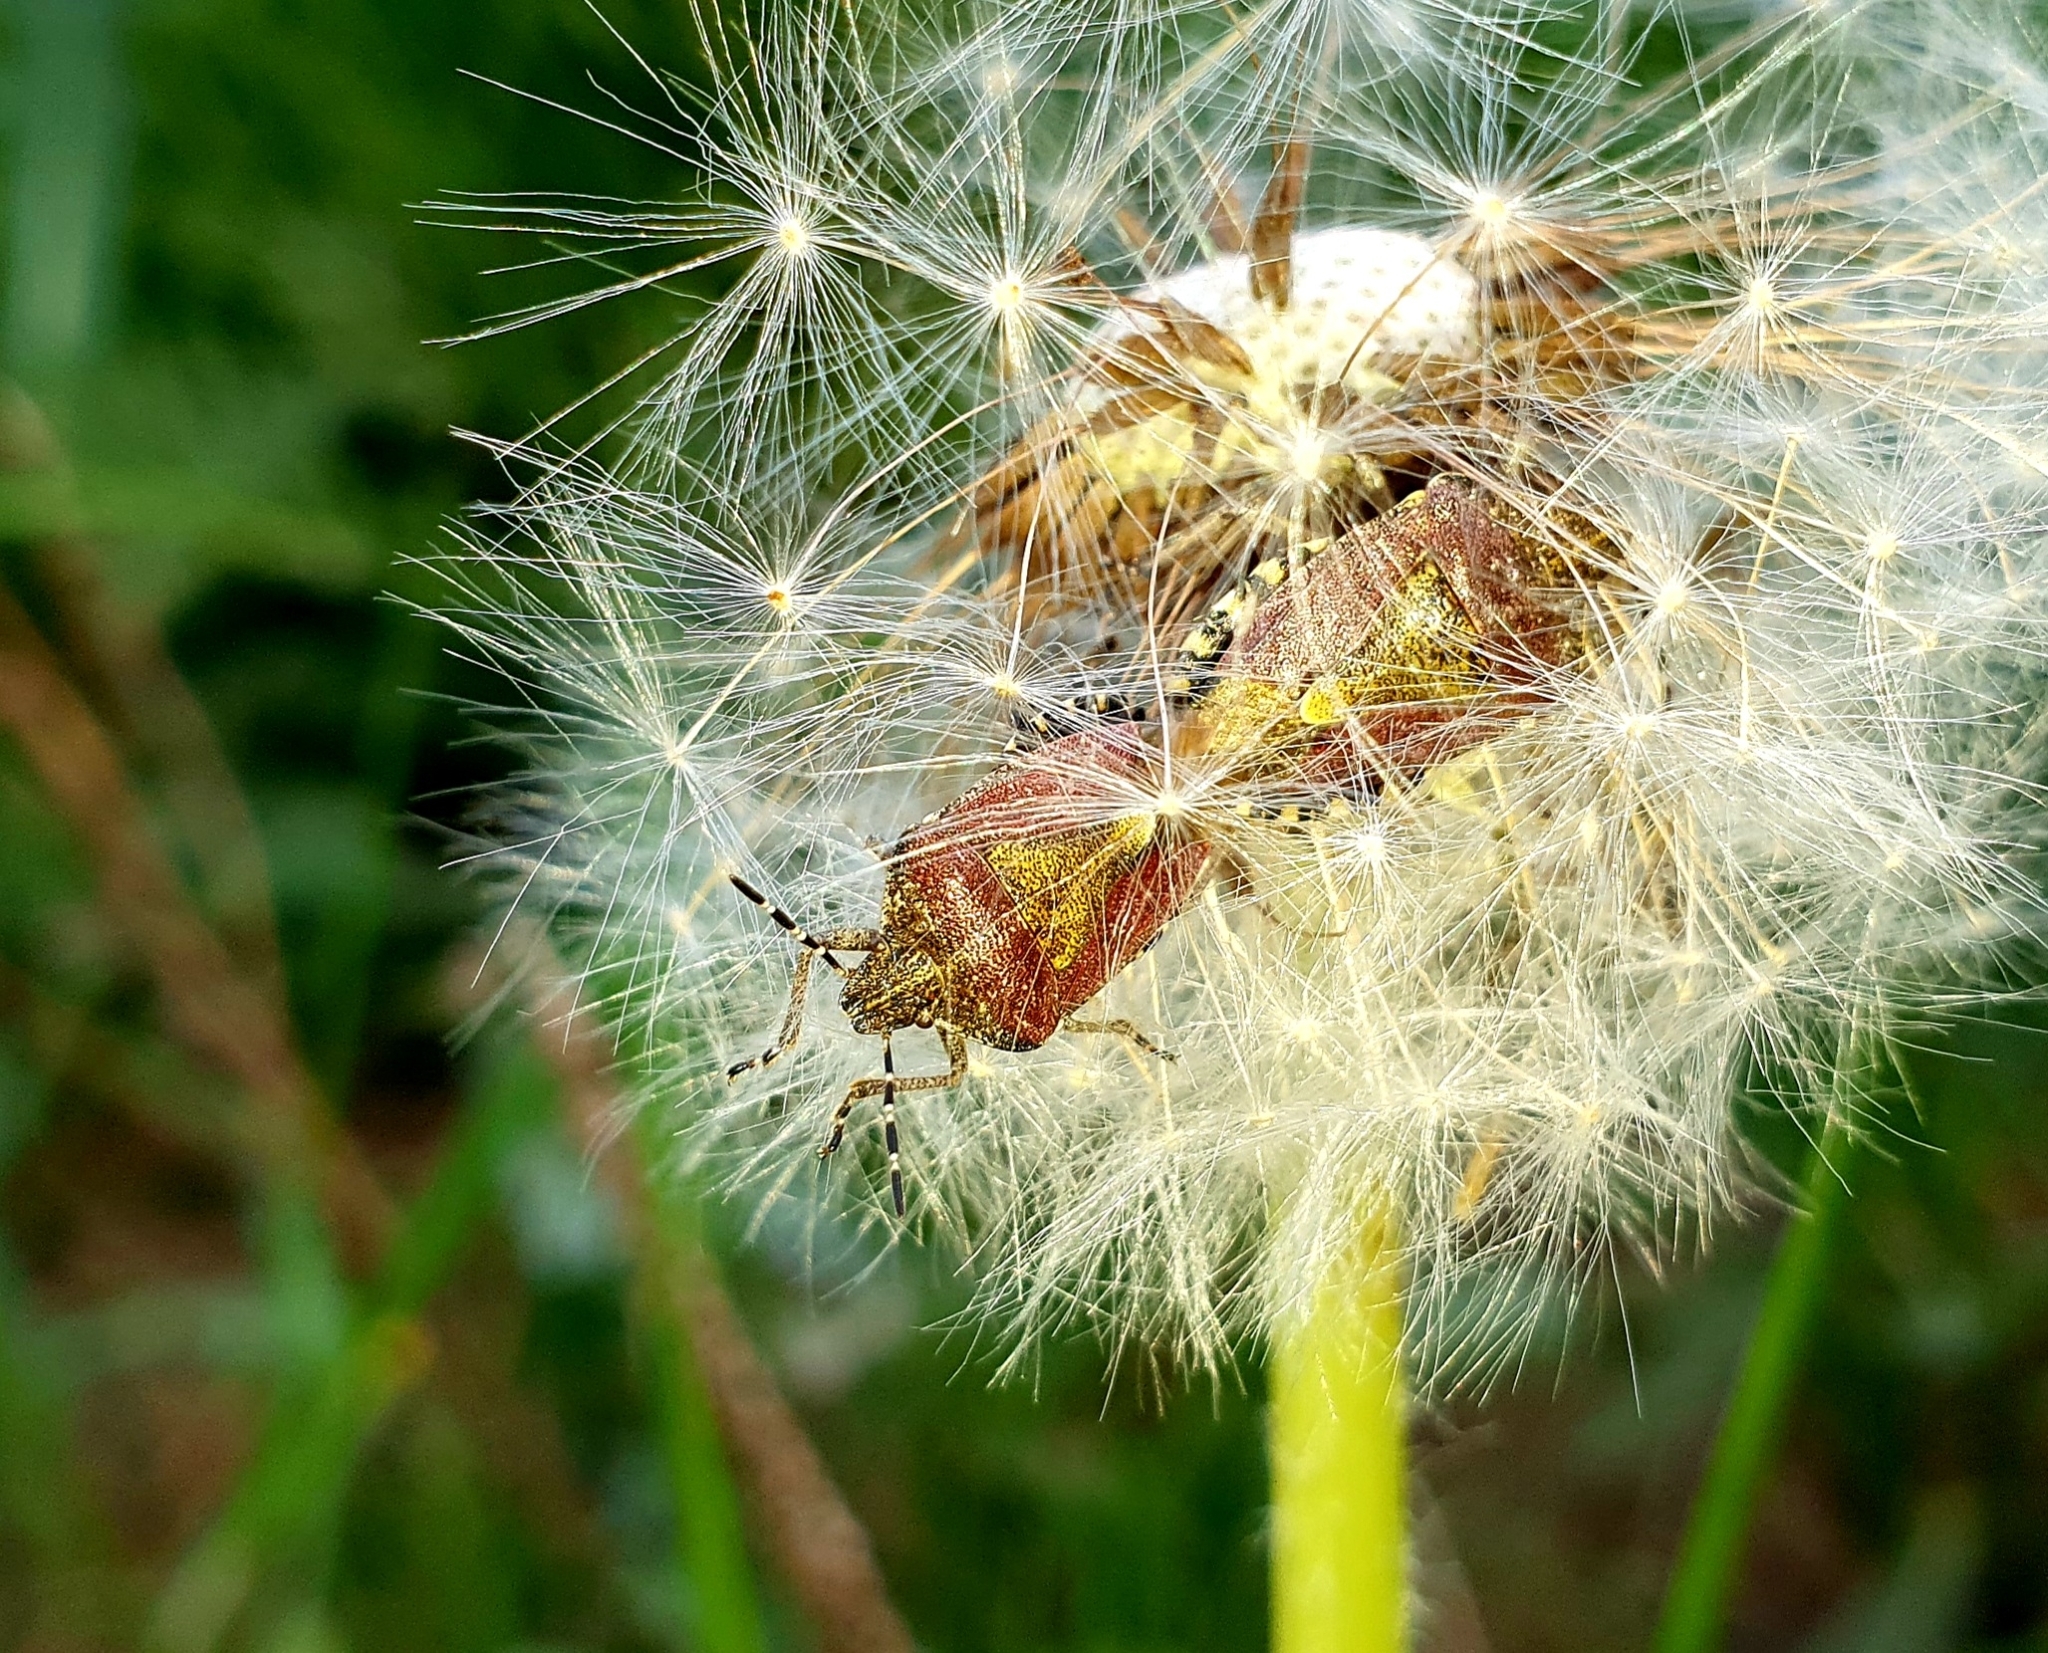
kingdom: Animalia
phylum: Arthropoda
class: Insecta
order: Hemiptera
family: Pentatomidae
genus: Dolycoris
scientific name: Dolycoris baccarum
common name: Sloe bug
